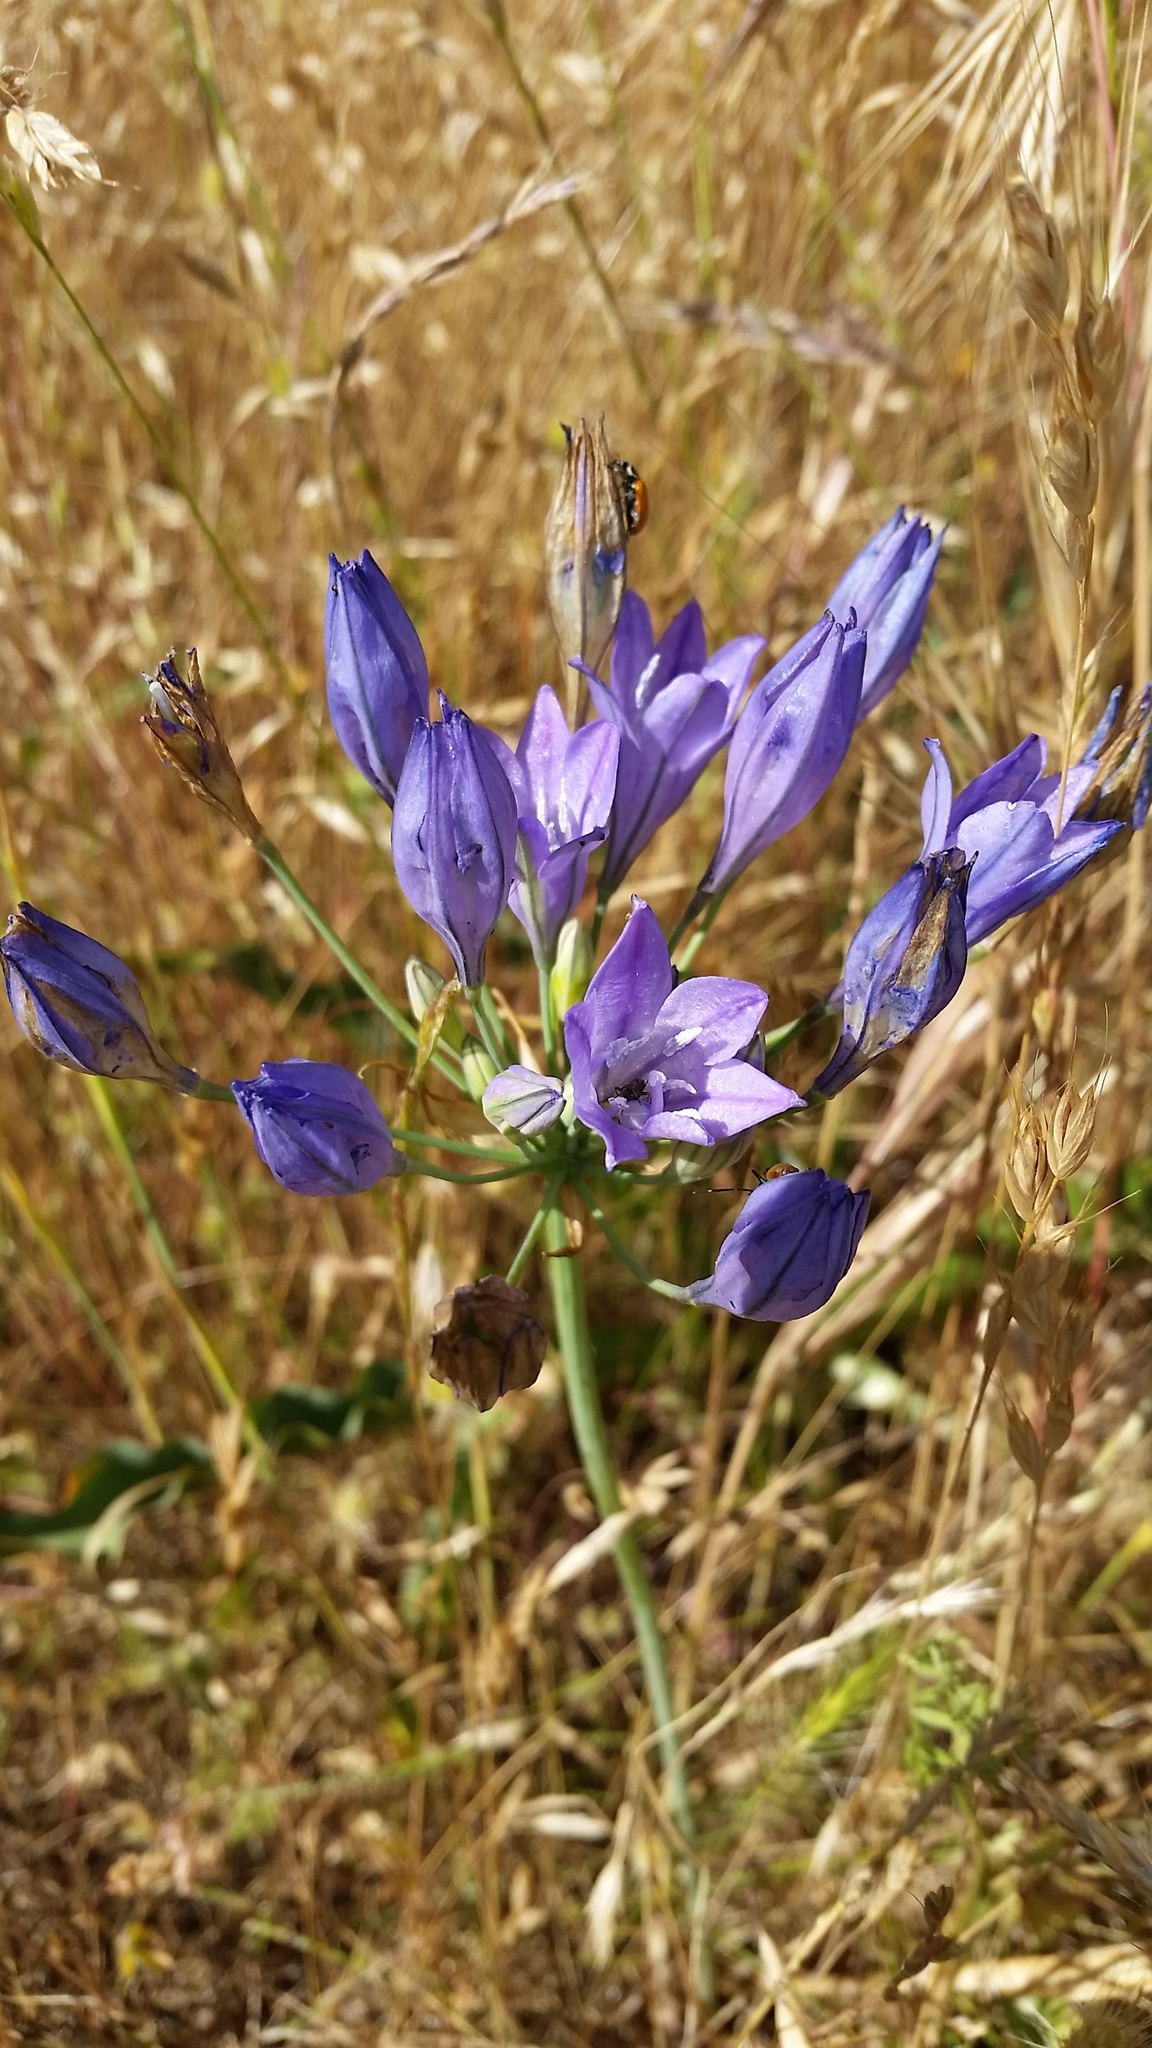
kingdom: Plantae
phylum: Tracheophyta
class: Liliopsida
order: Asparagales
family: Asparagaceae
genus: Triteleia
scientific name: Triteleia laxa
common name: Triplet-lily
